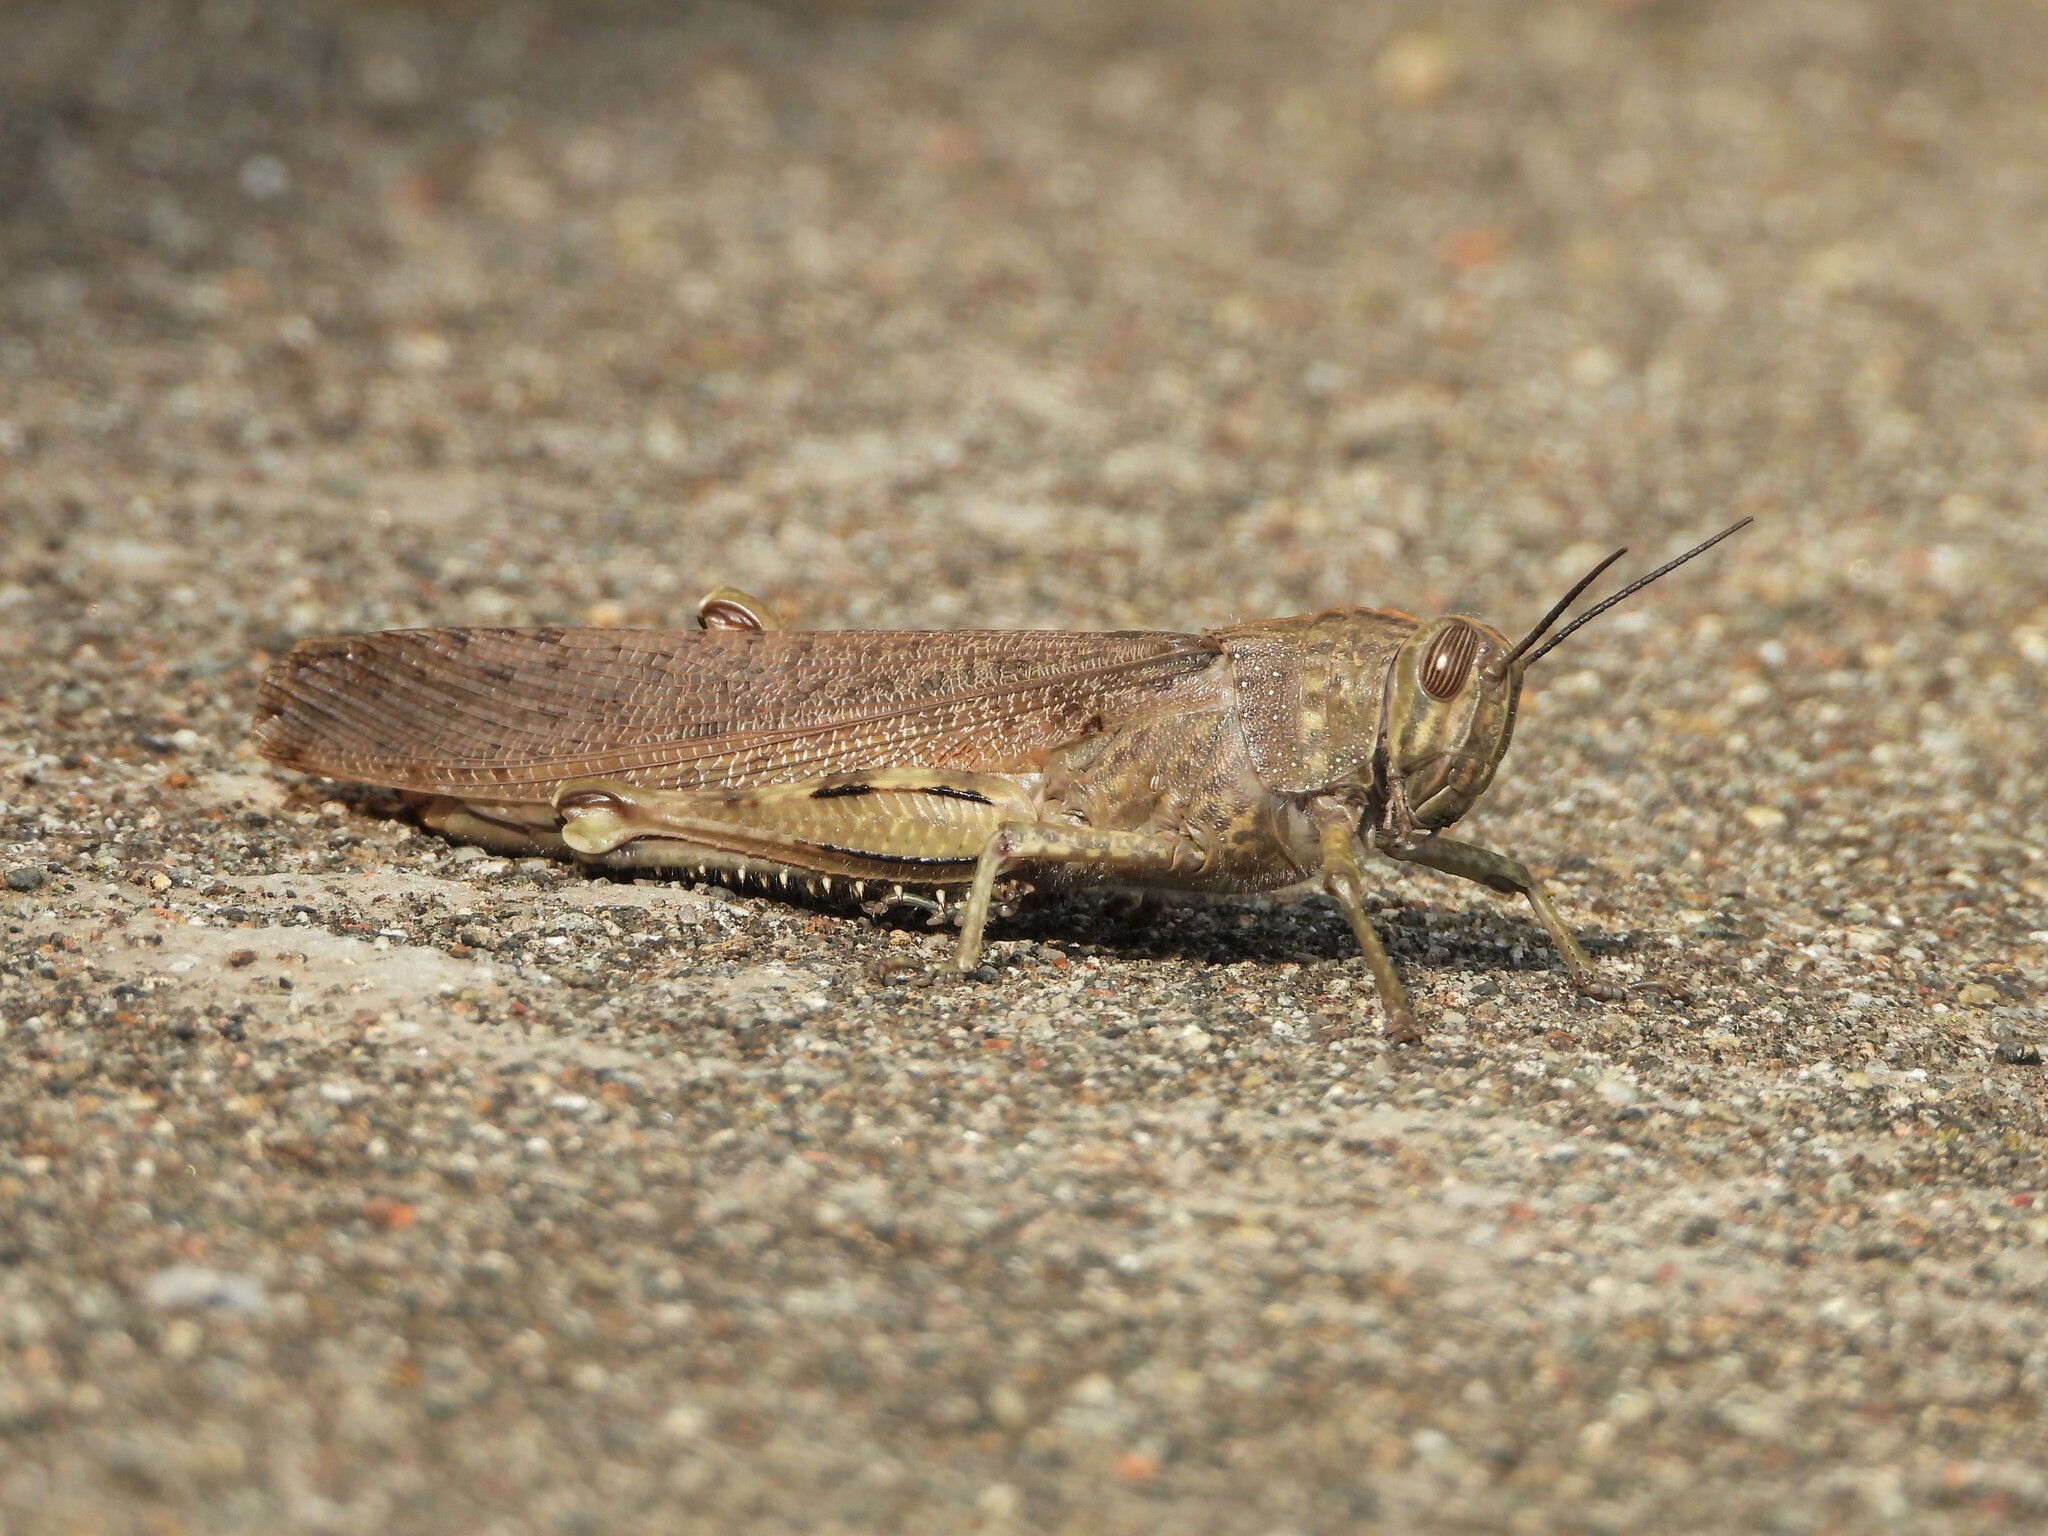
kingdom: Animalia
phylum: Arthropoda
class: Insecta
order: Orthoptera
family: Acrididae
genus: Anacridium
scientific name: Anacridium aegyptium
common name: Egyptian grasshopper
